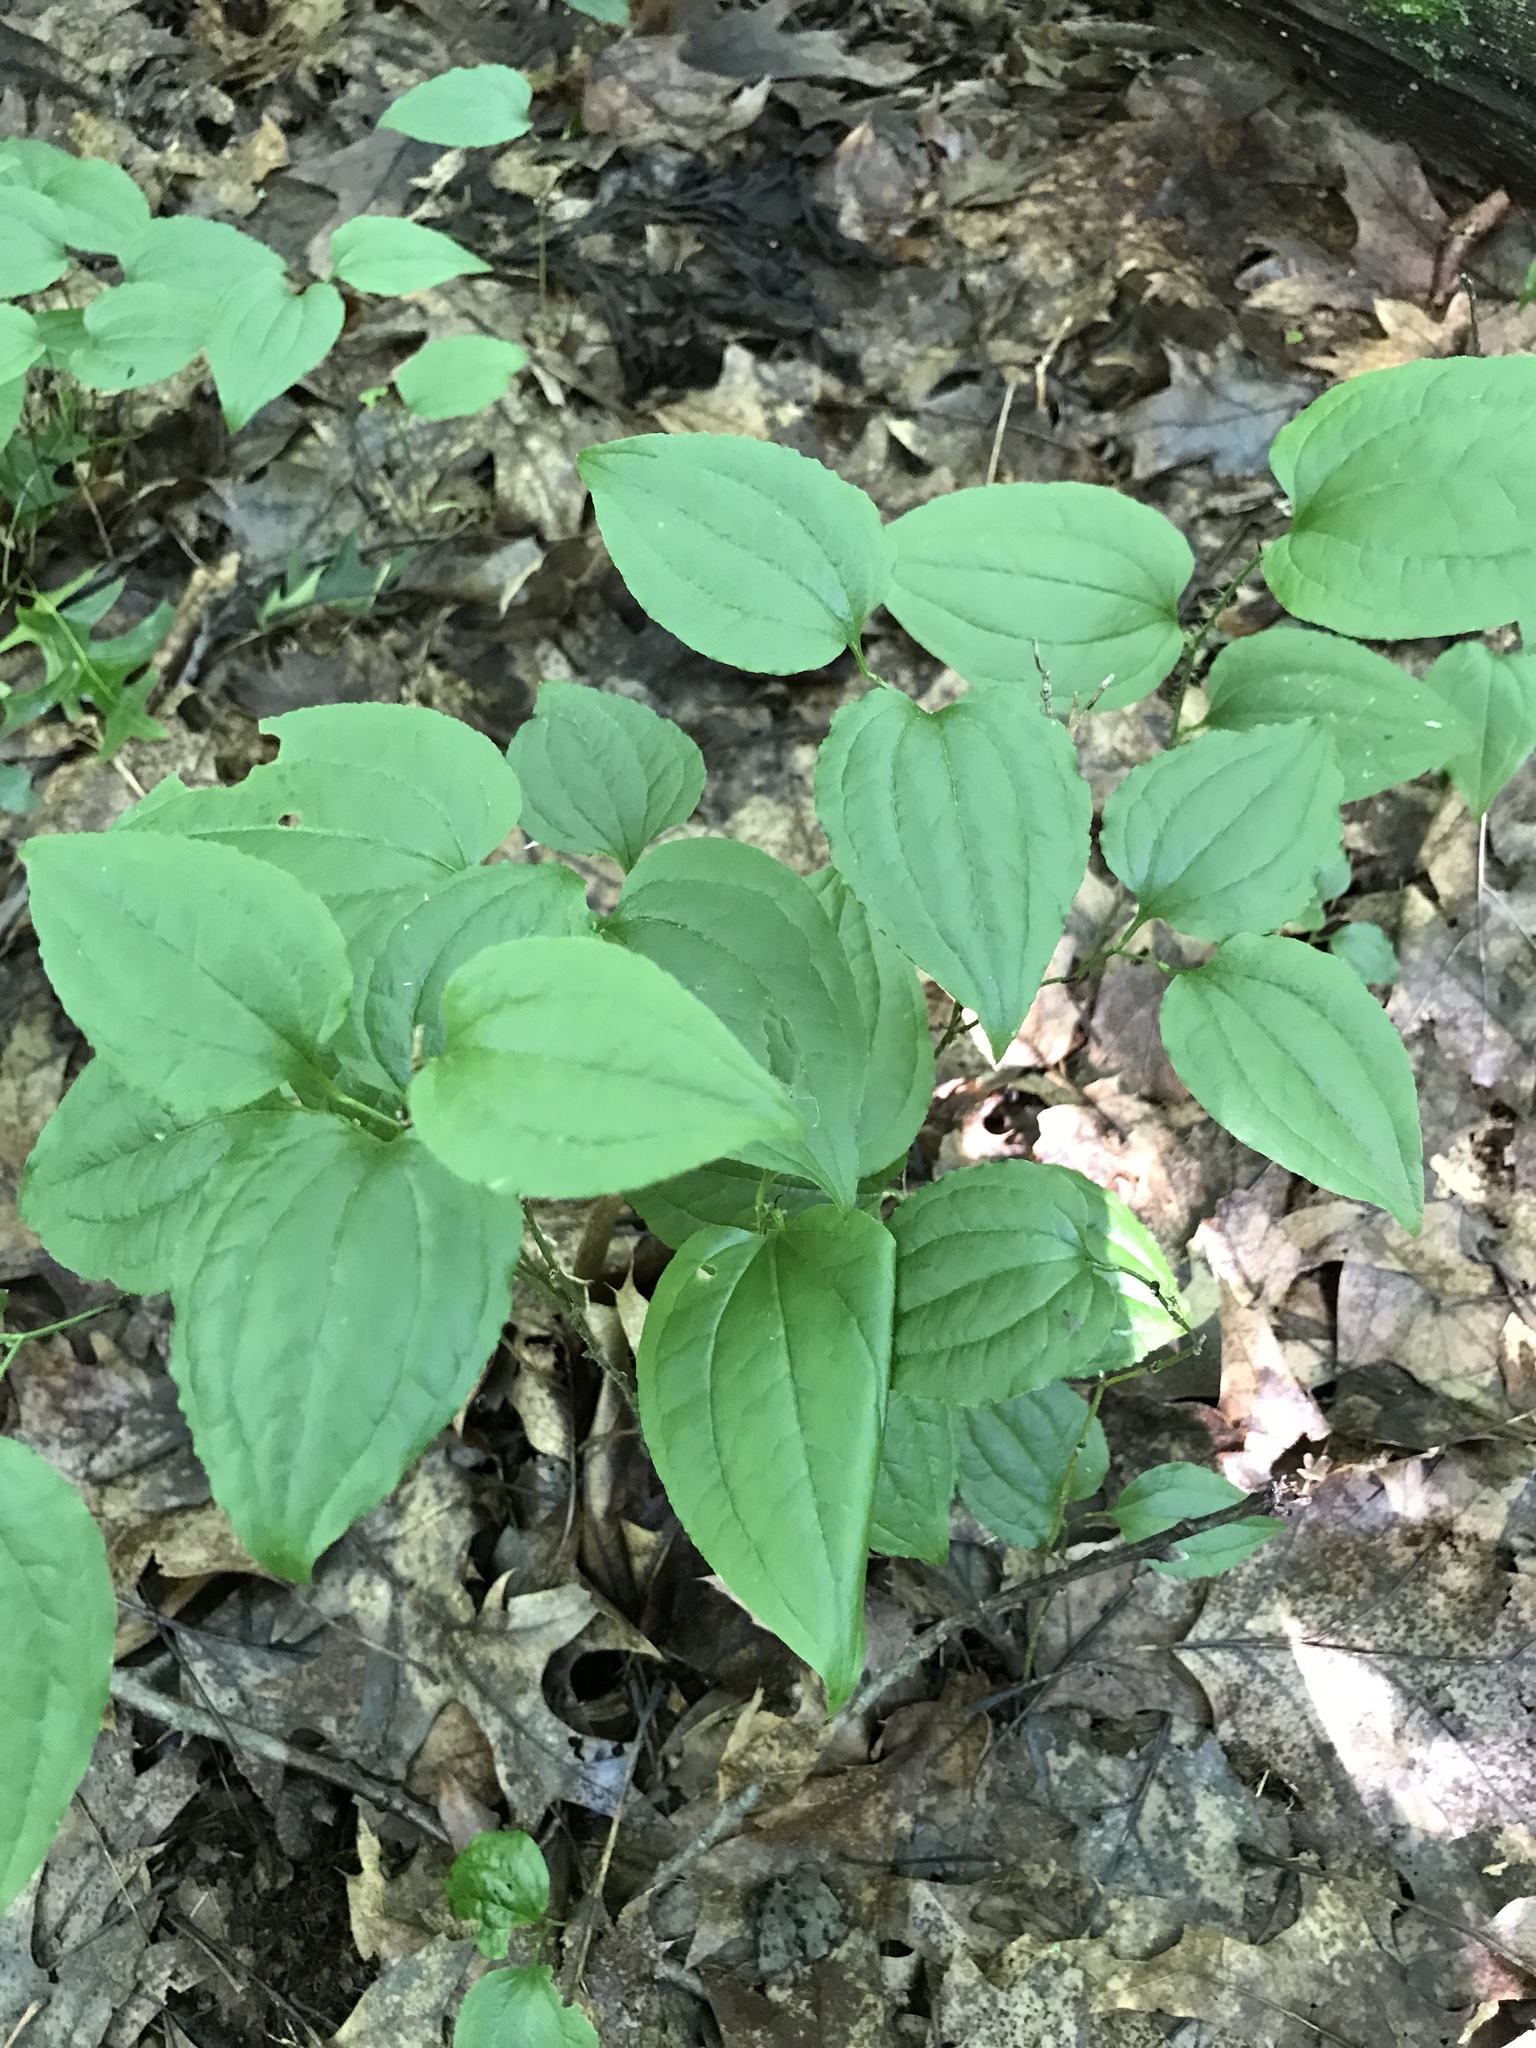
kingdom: Plantae
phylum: Tracheophyta
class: Liliopsida
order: Liliales
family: Smilacaceae
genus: Smilax
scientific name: Smilax tamnoides
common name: Hellfetter
